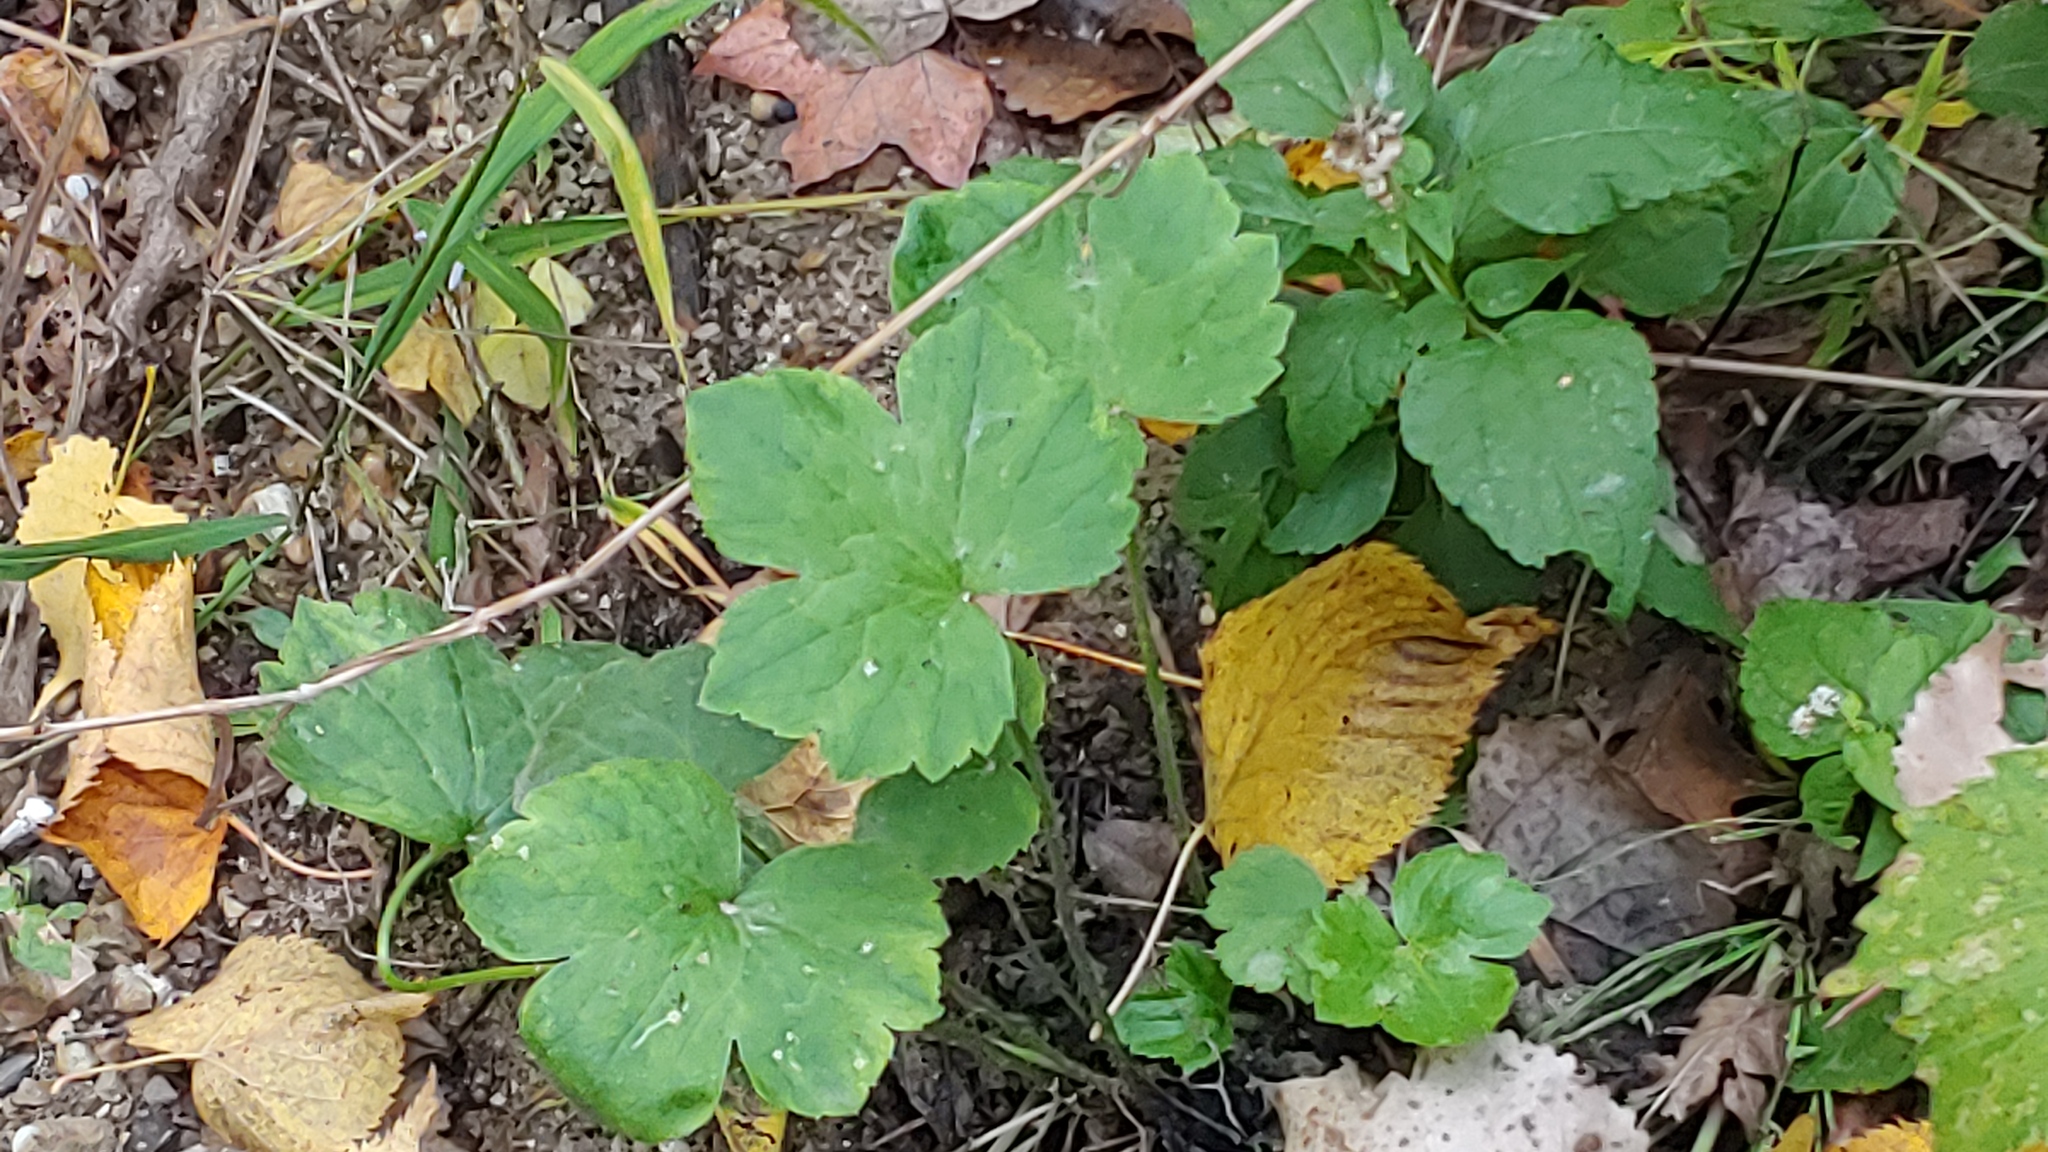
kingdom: Plantae
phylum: Tracheophyta
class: Magnoliopsida
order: Ranunculales
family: Ranunculaceae
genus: Ranunculus
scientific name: Ranunculus recurvatus
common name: Blisterwort
